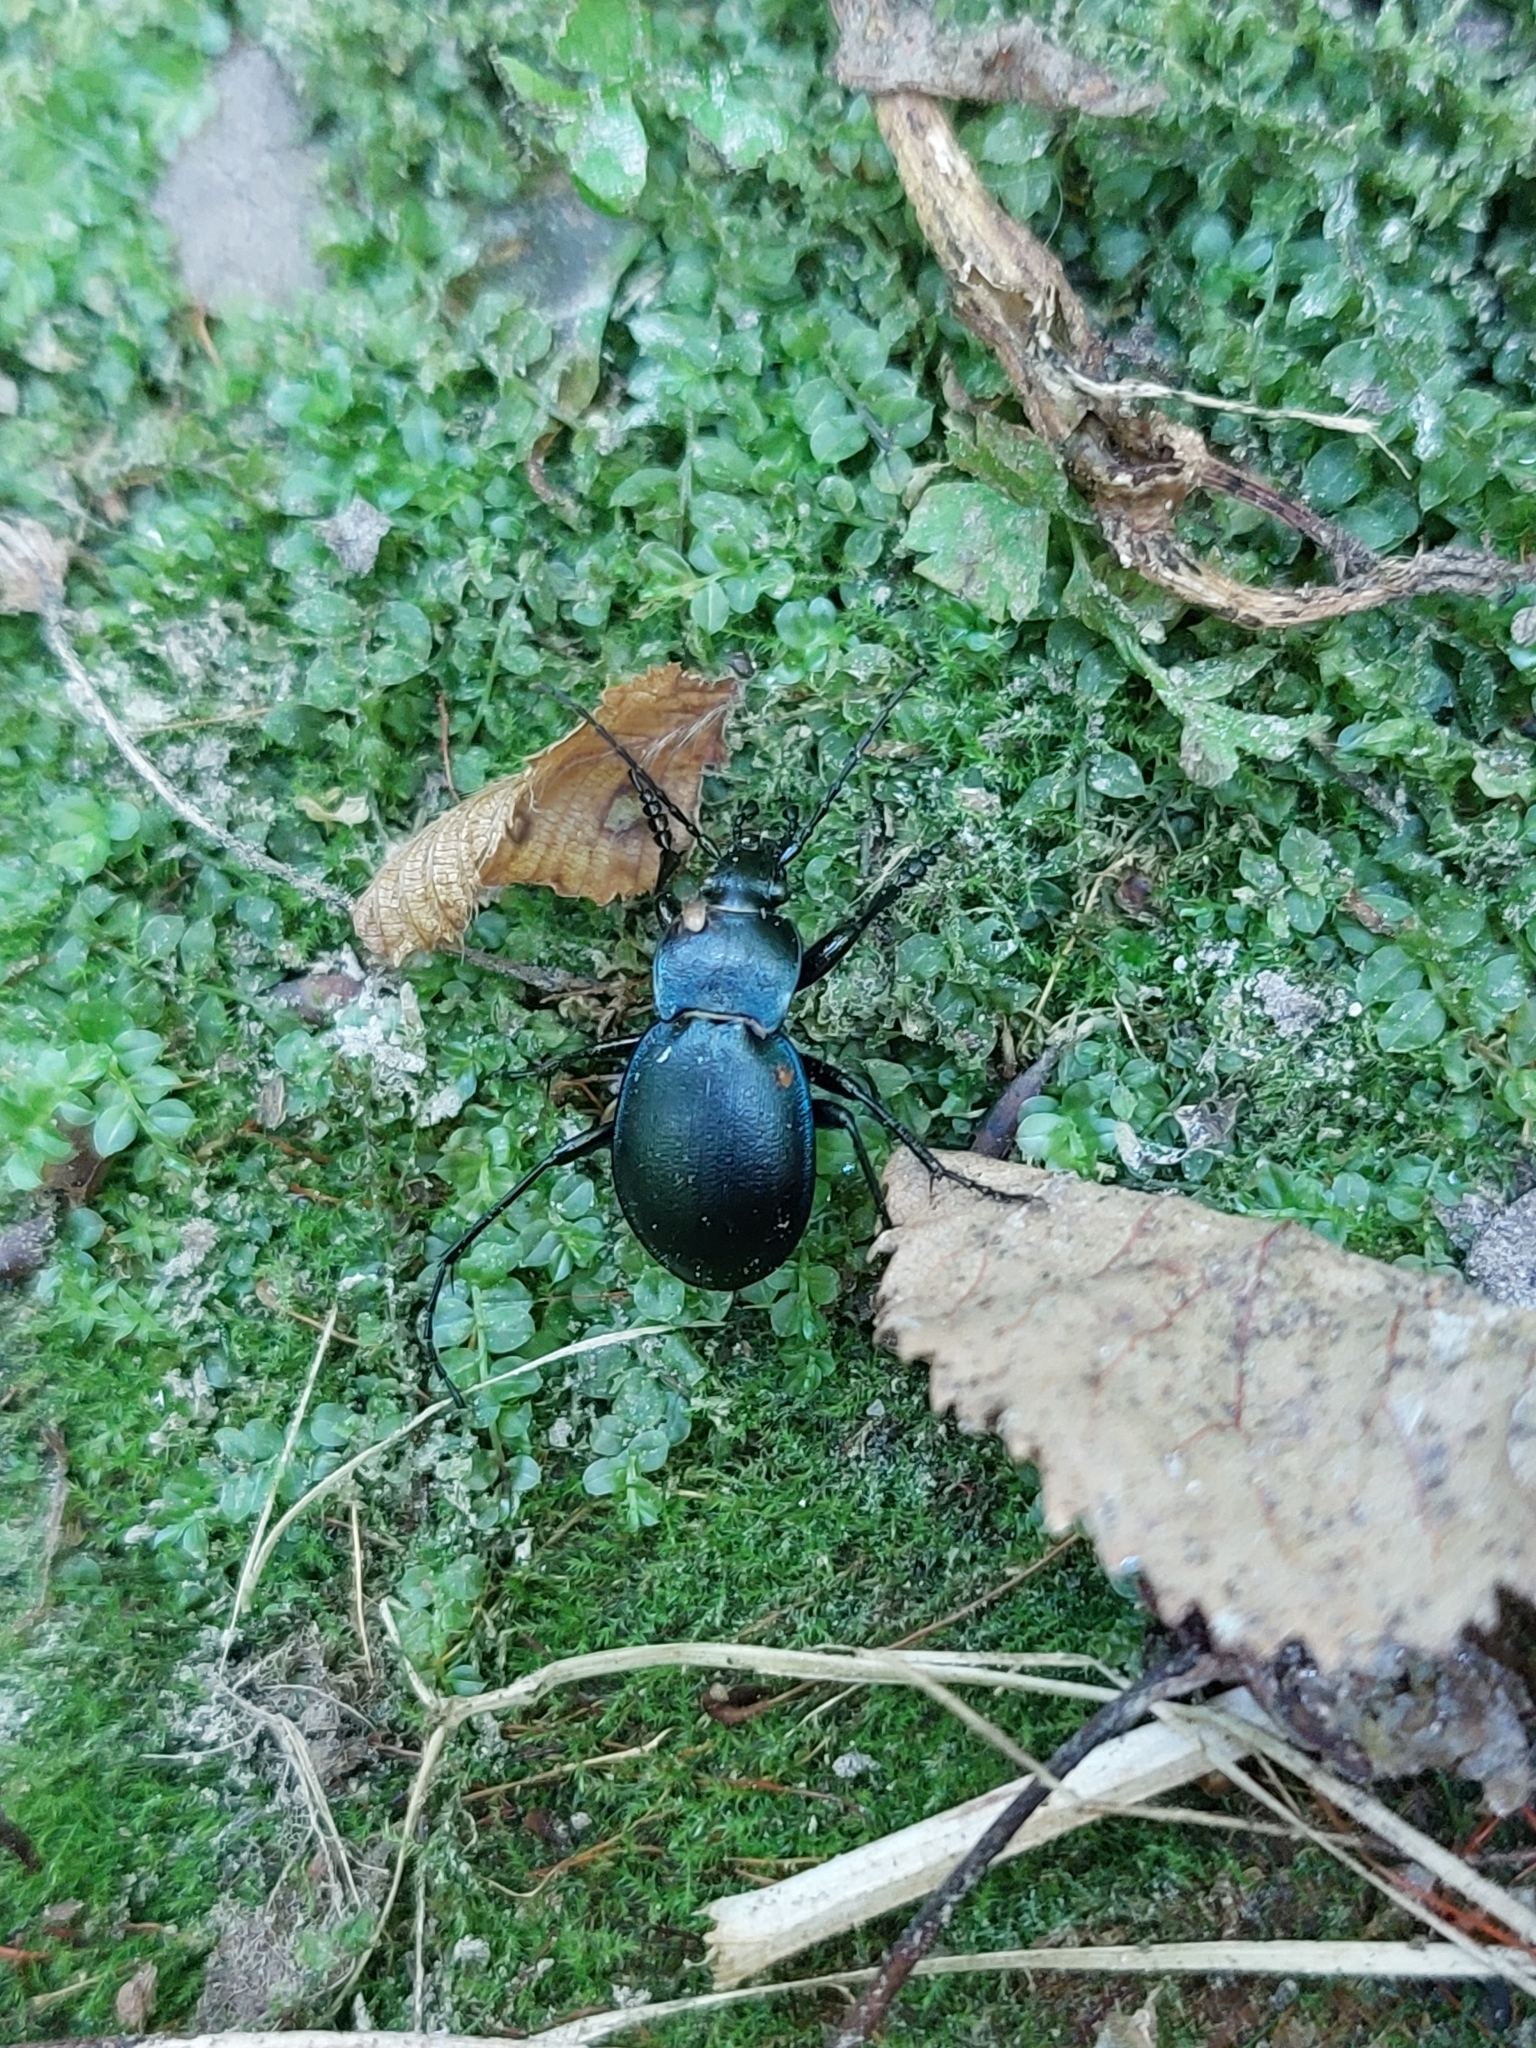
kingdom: Animalia
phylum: Arthropoda
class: Insecta
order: Coleoptera
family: Carabidae
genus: Carabus
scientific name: Carabus convexus
